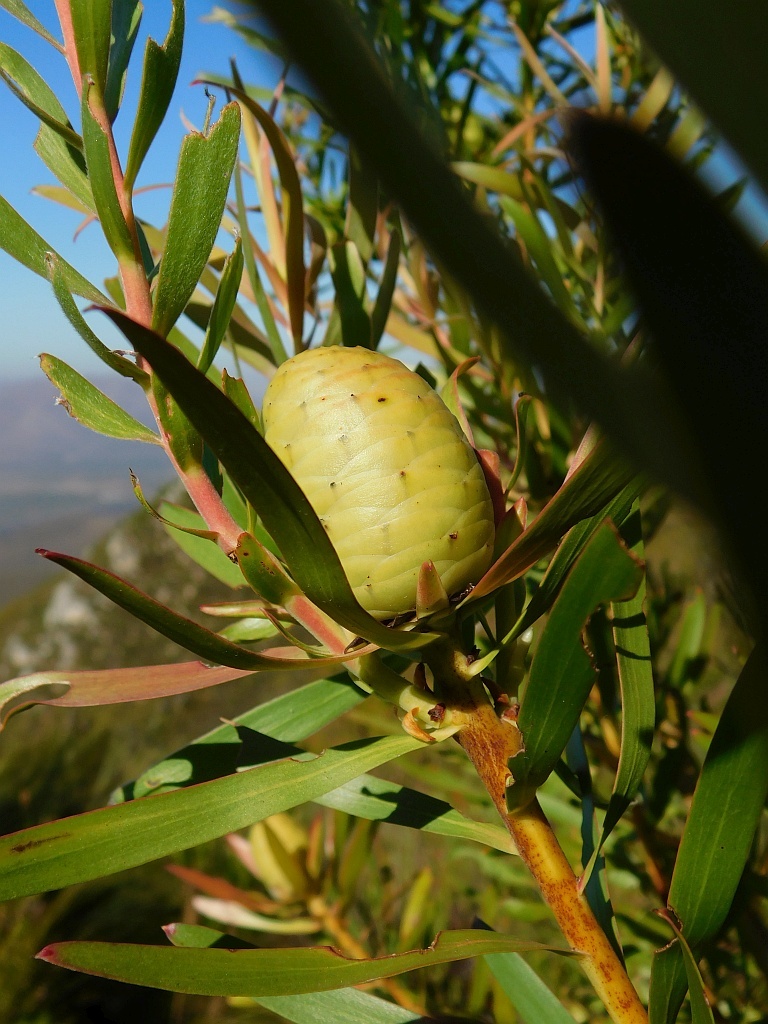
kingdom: Plantae
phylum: Tracheophyta
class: Magnoliopsida
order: Proteales
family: Proteaceae
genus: Leucadendron
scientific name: Leucadendron salicifolium
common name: Common stream conebush
